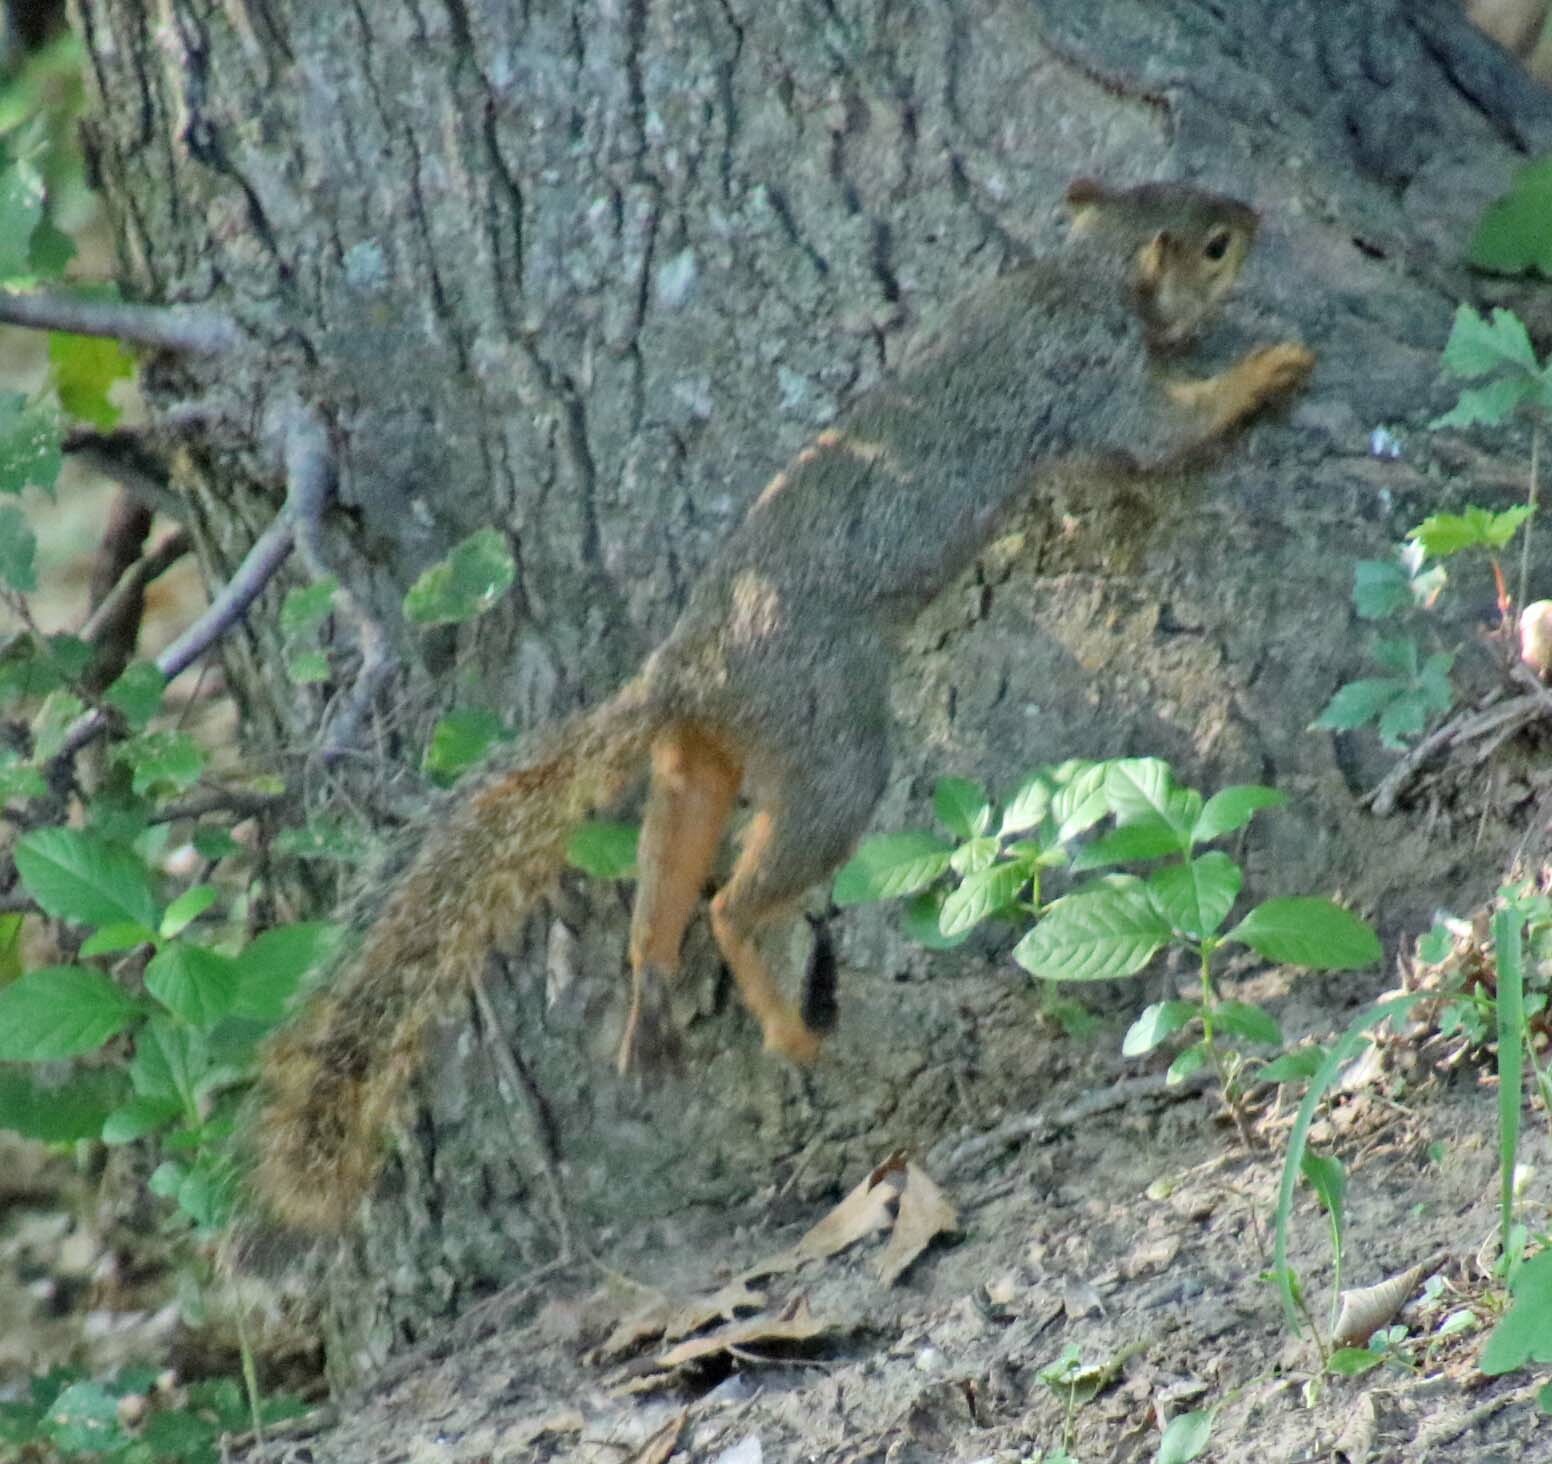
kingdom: Animalia
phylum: Chordata
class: Mammalia
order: Rodentia
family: Sciuridae
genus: Sciurus
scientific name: Sciurus niger
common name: Fox squirrel
